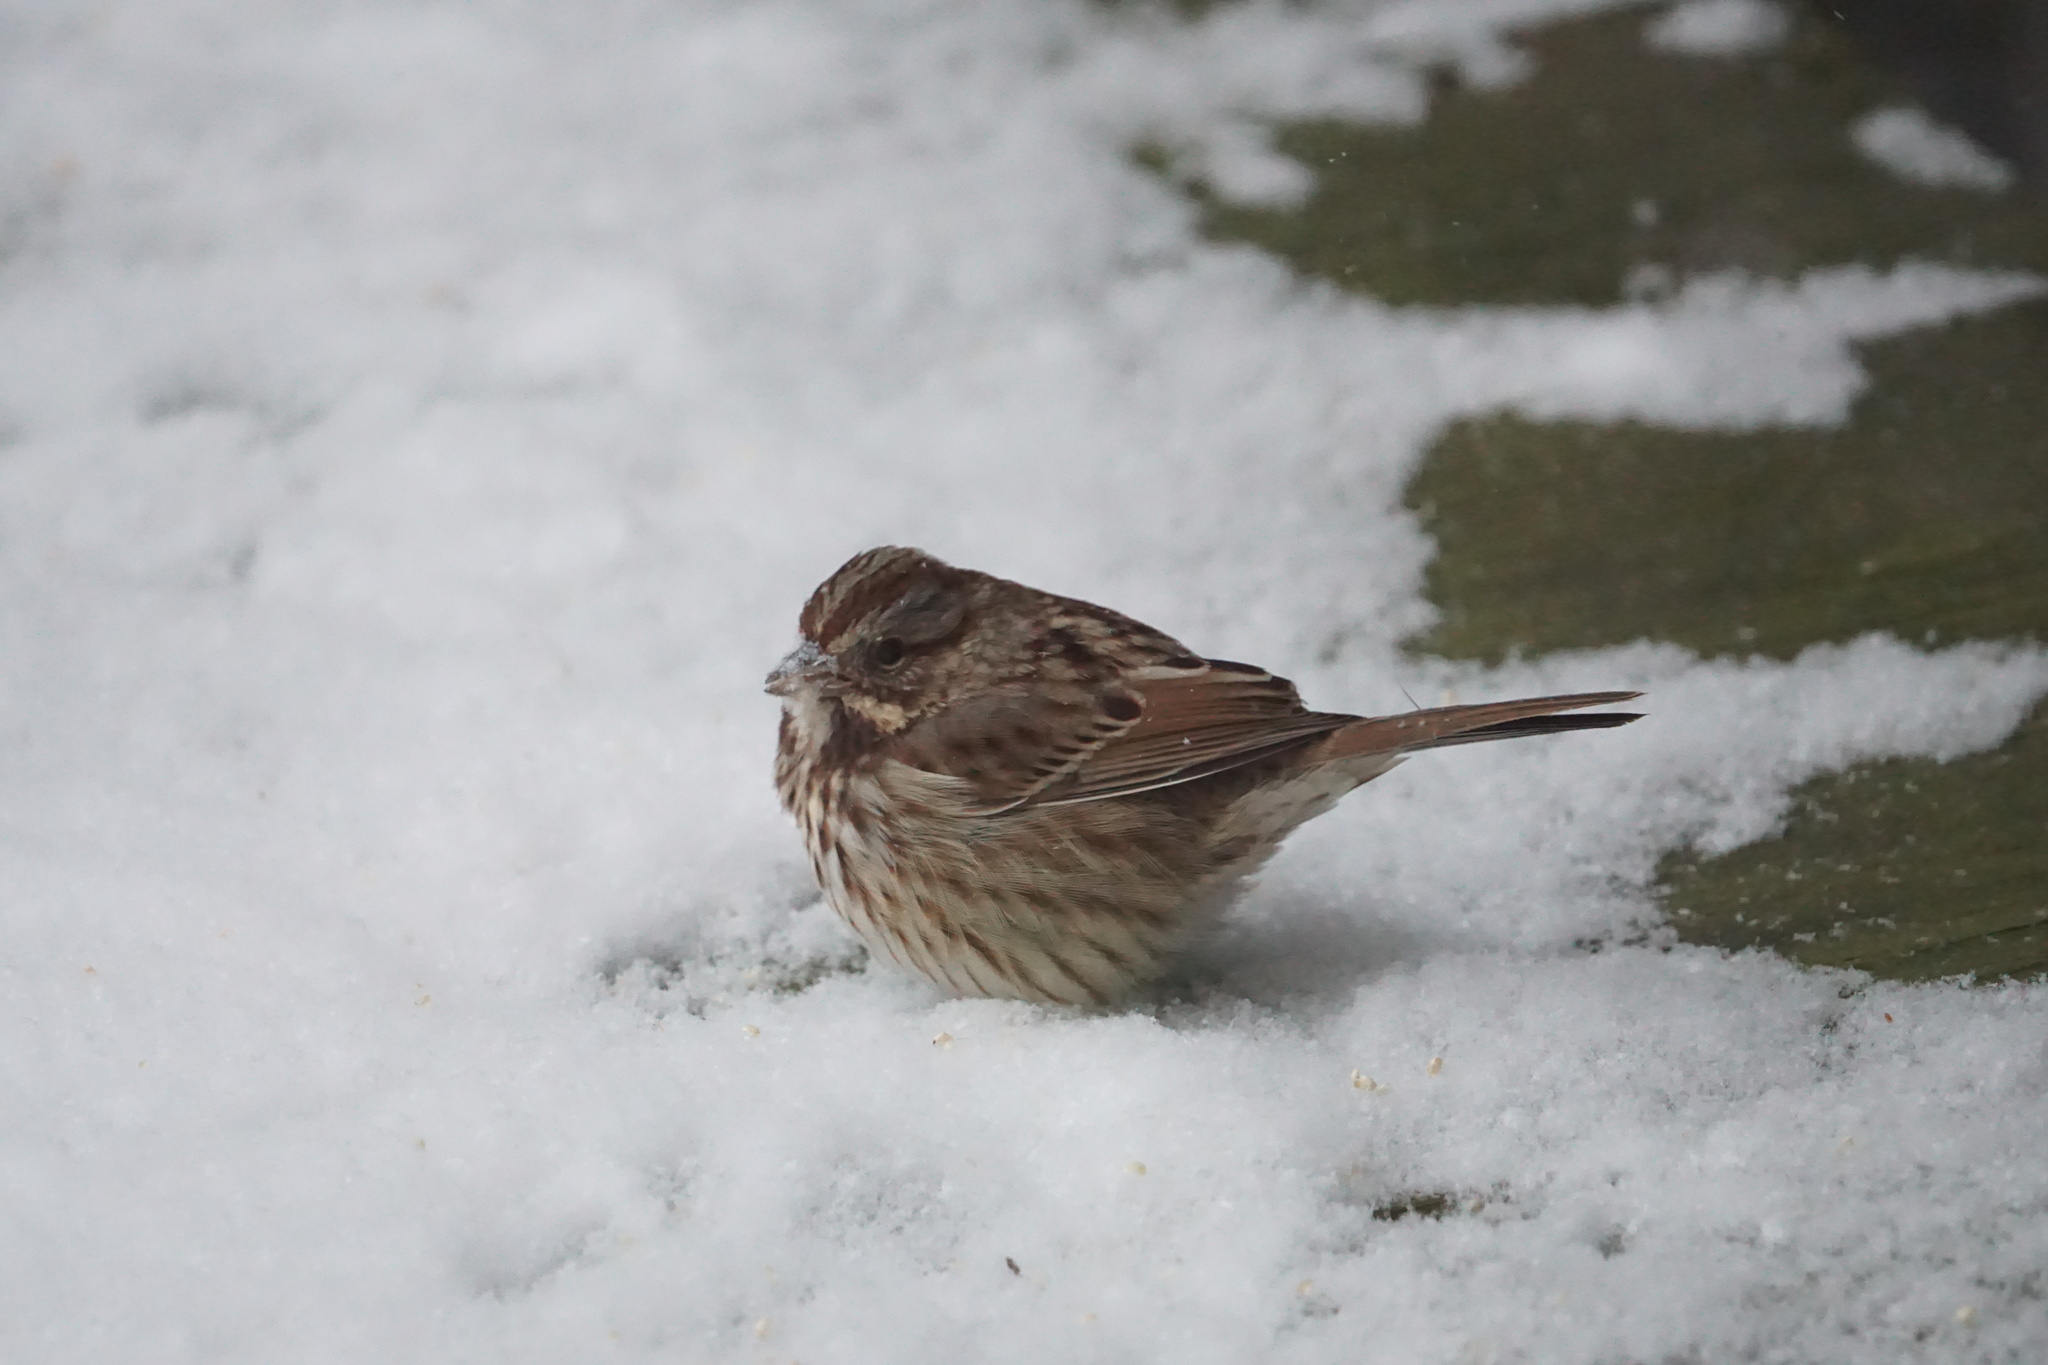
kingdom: Animalia
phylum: Chordata
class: Aves
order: Passeriformes
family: Passerellidae
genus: Melospiza
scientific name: Melospiza melodia
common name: Song sparrow
